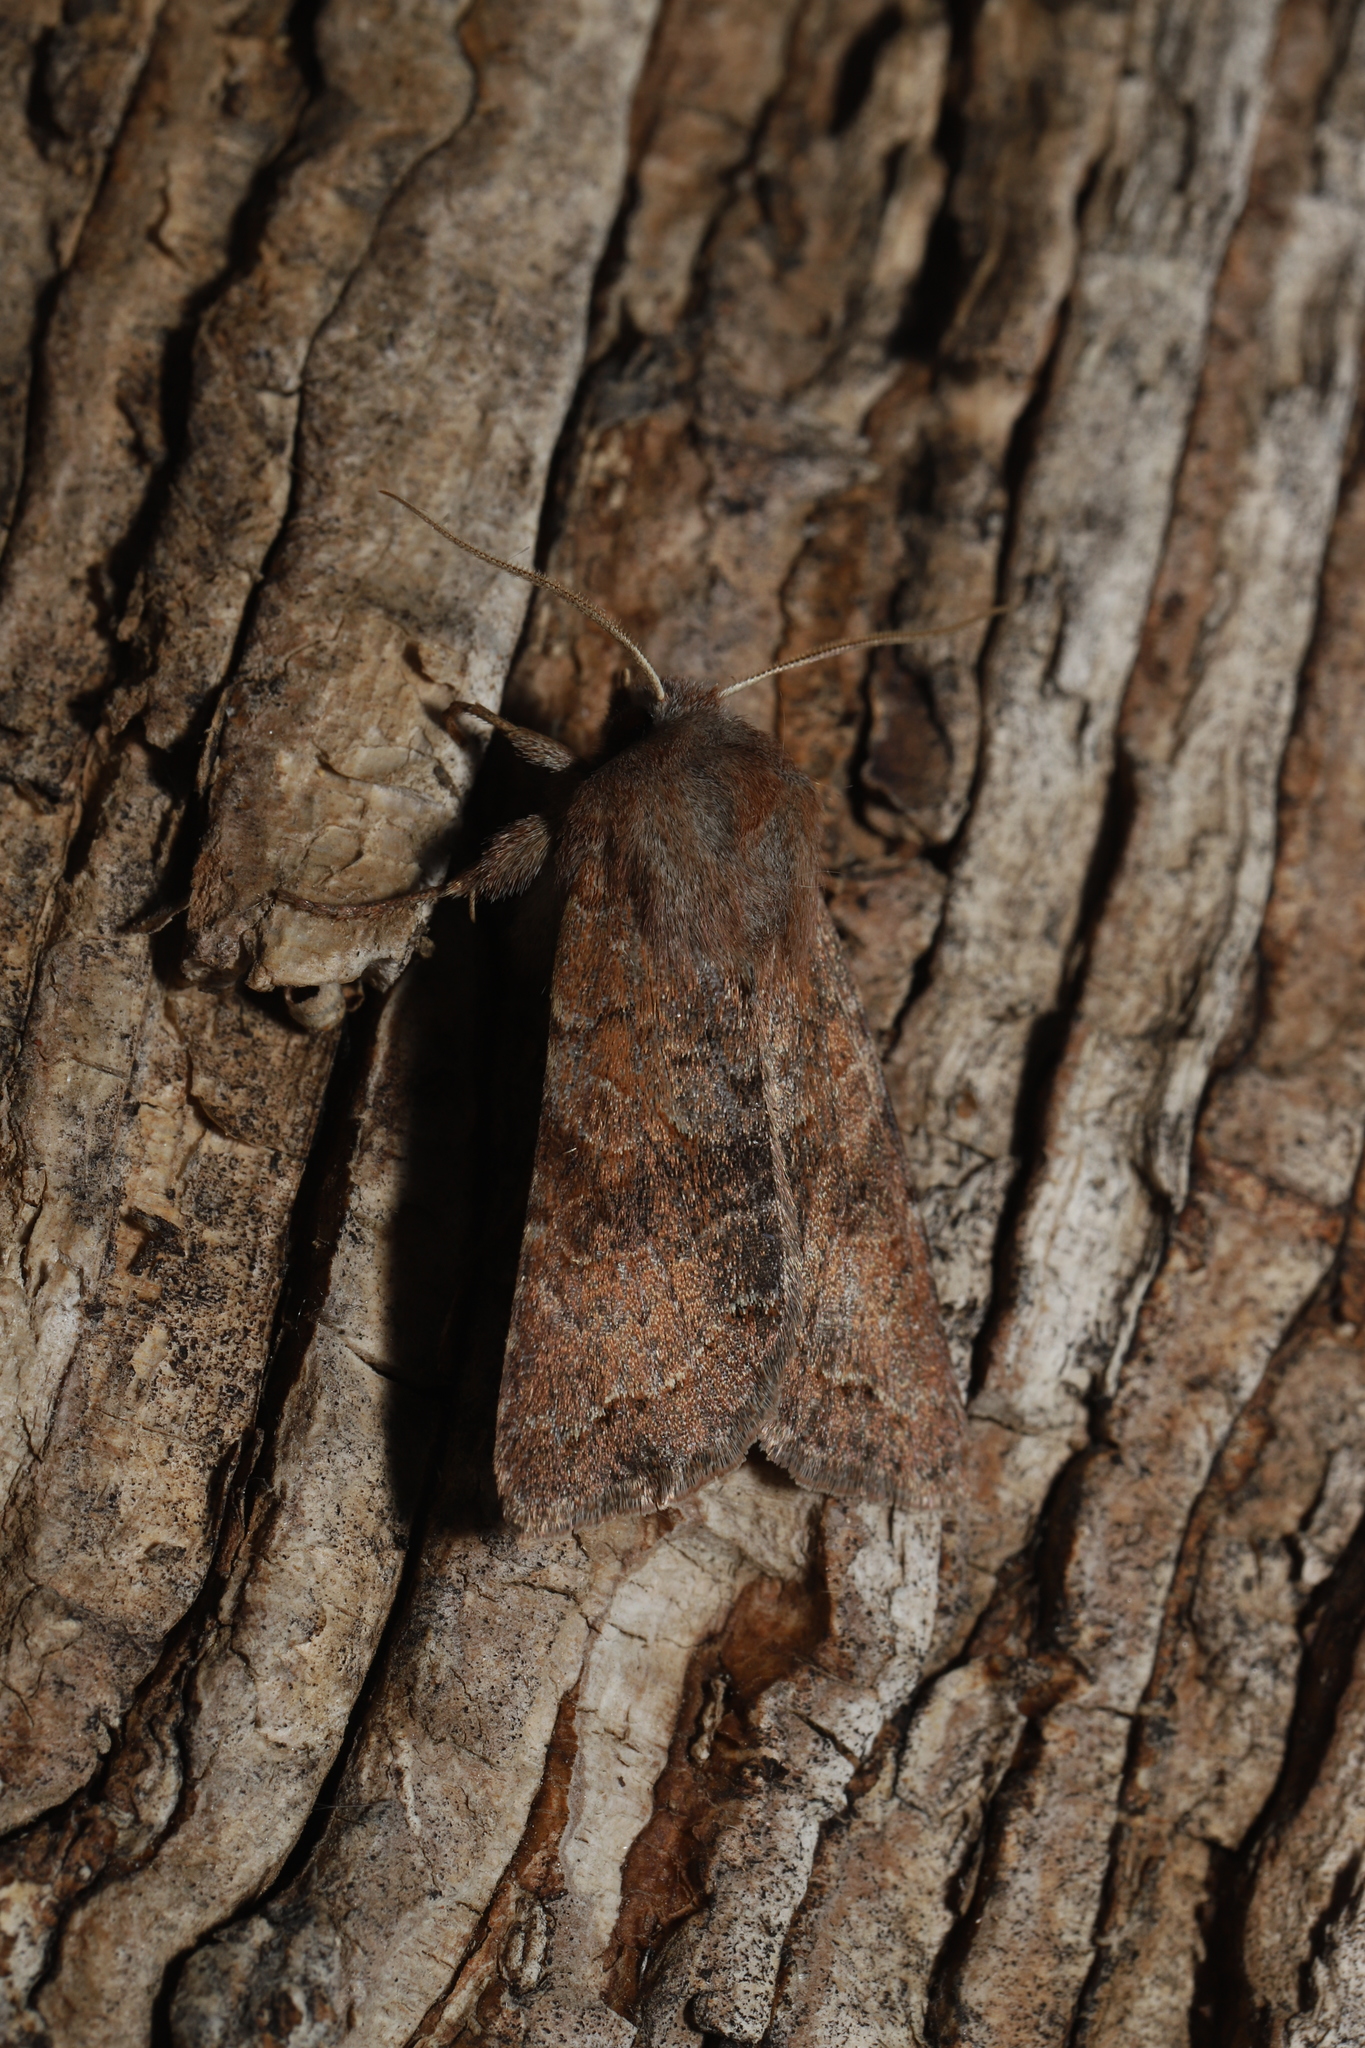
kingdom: Animalia
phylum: Arthropoda
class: Insecta
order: Lepidoptera
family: Noctuidae
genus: Orthosia
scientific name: Orthosia revicta
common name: Rusty whitesided caterpillar
